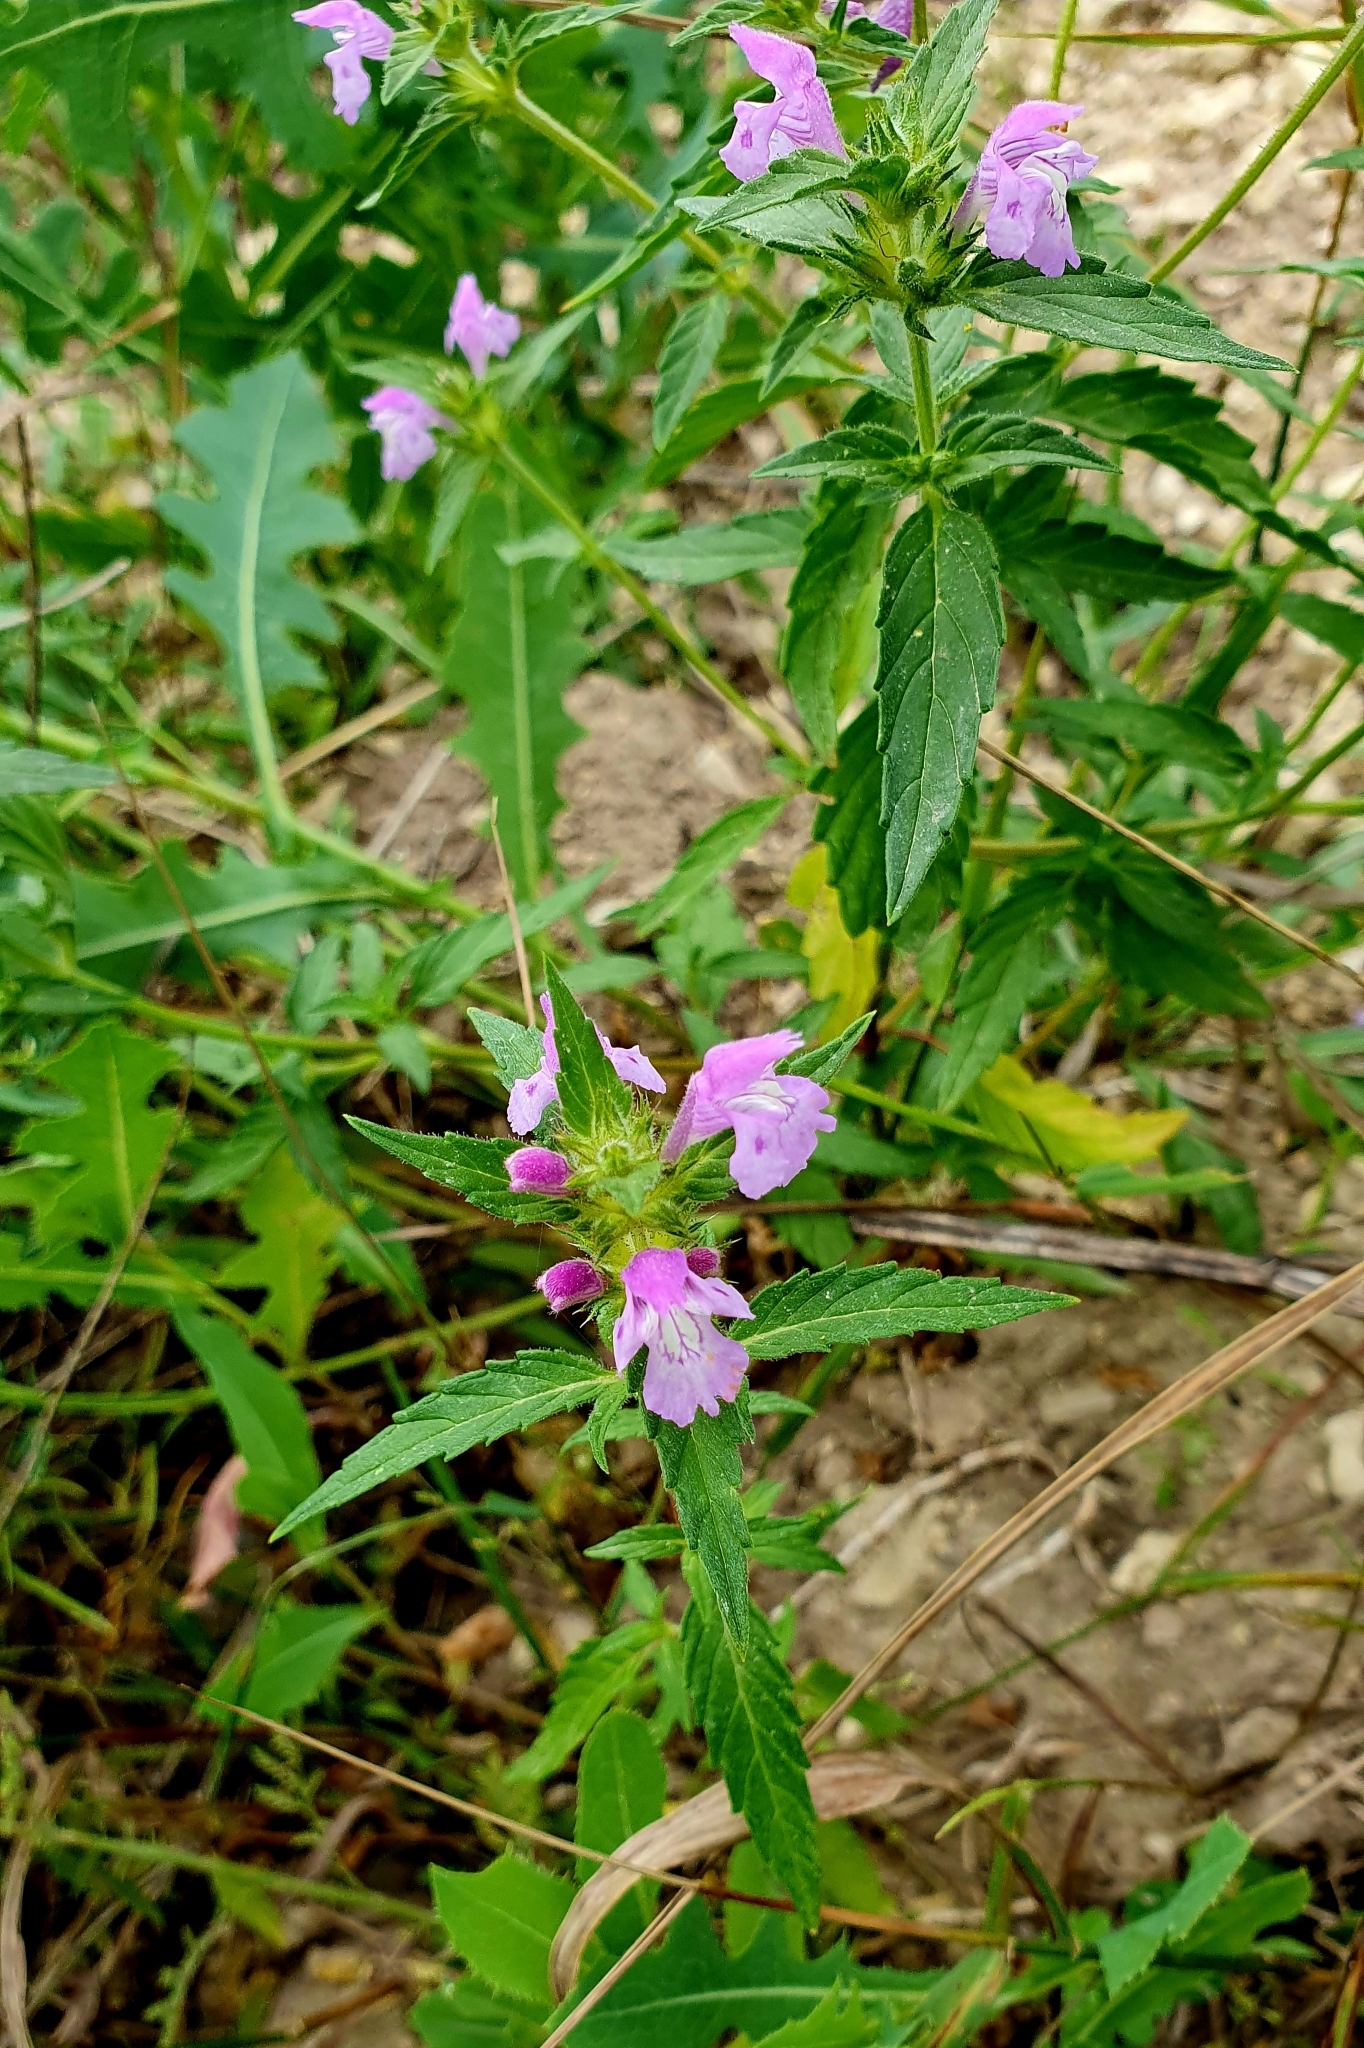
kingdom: Plantae
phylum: Tracheophyta
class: Magnoliopsida
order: Lamiales
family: Lamiaceae
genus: Galeopsis
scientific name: Galeopsis ladanum
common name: Broad-leaved hemp-nettle
